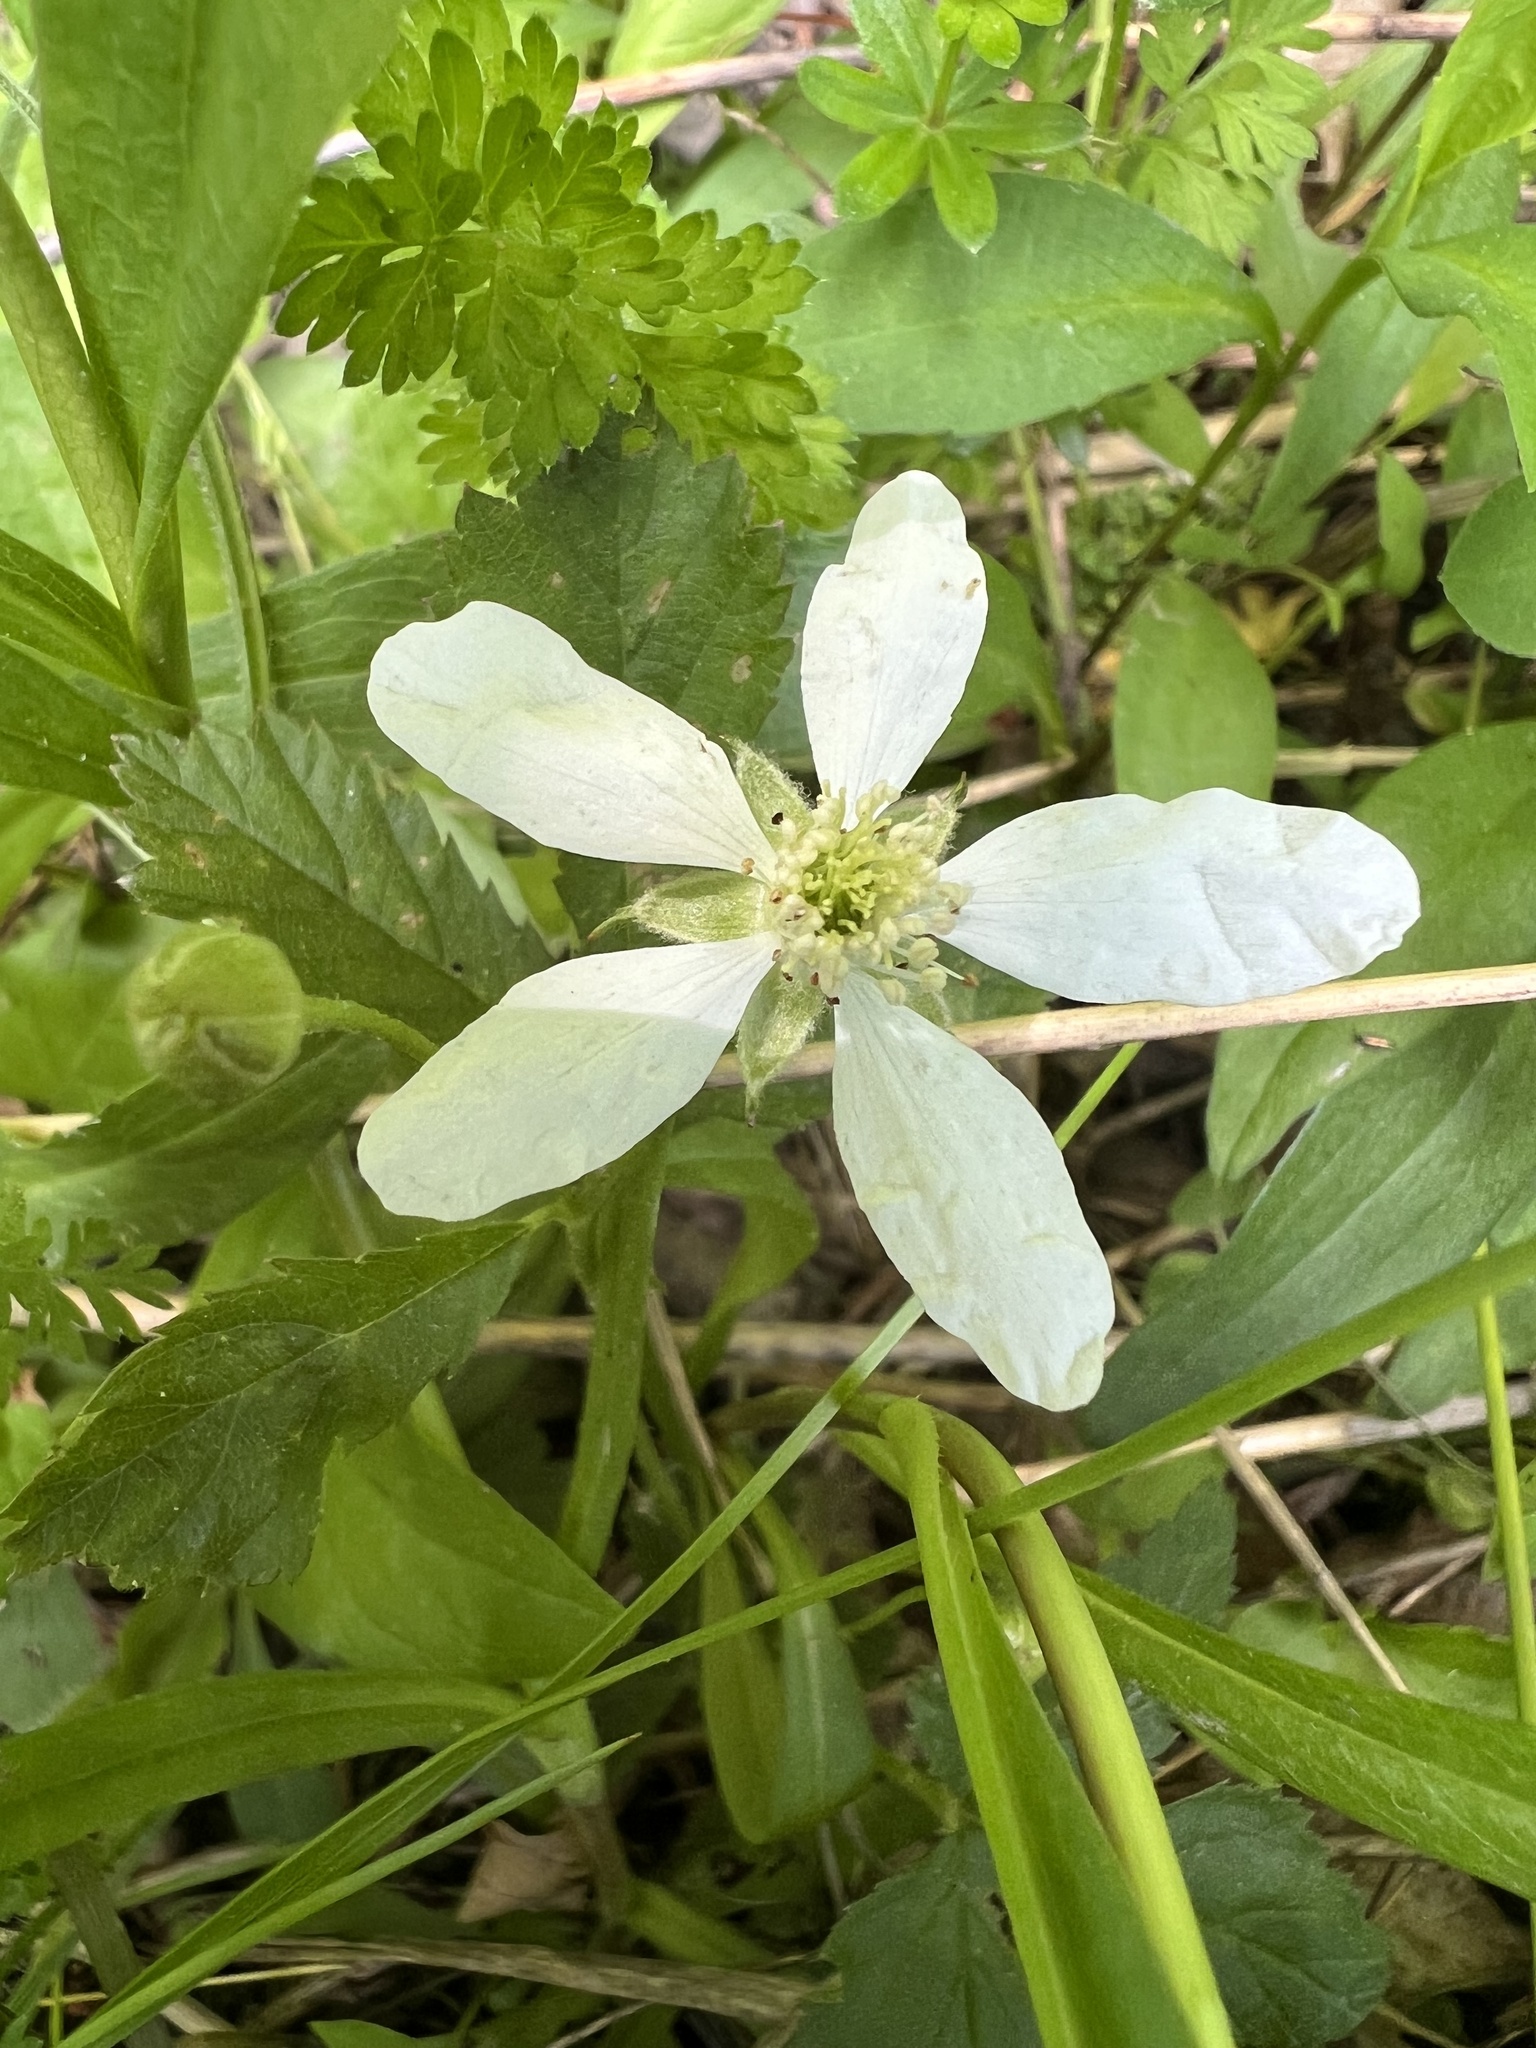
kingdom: Plantae
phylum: Tracheophyta
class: Magnoliopsida
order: Rosales
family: Rosaceae
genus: Rubus
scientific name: Rubus flagellaris
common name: American dewberry
